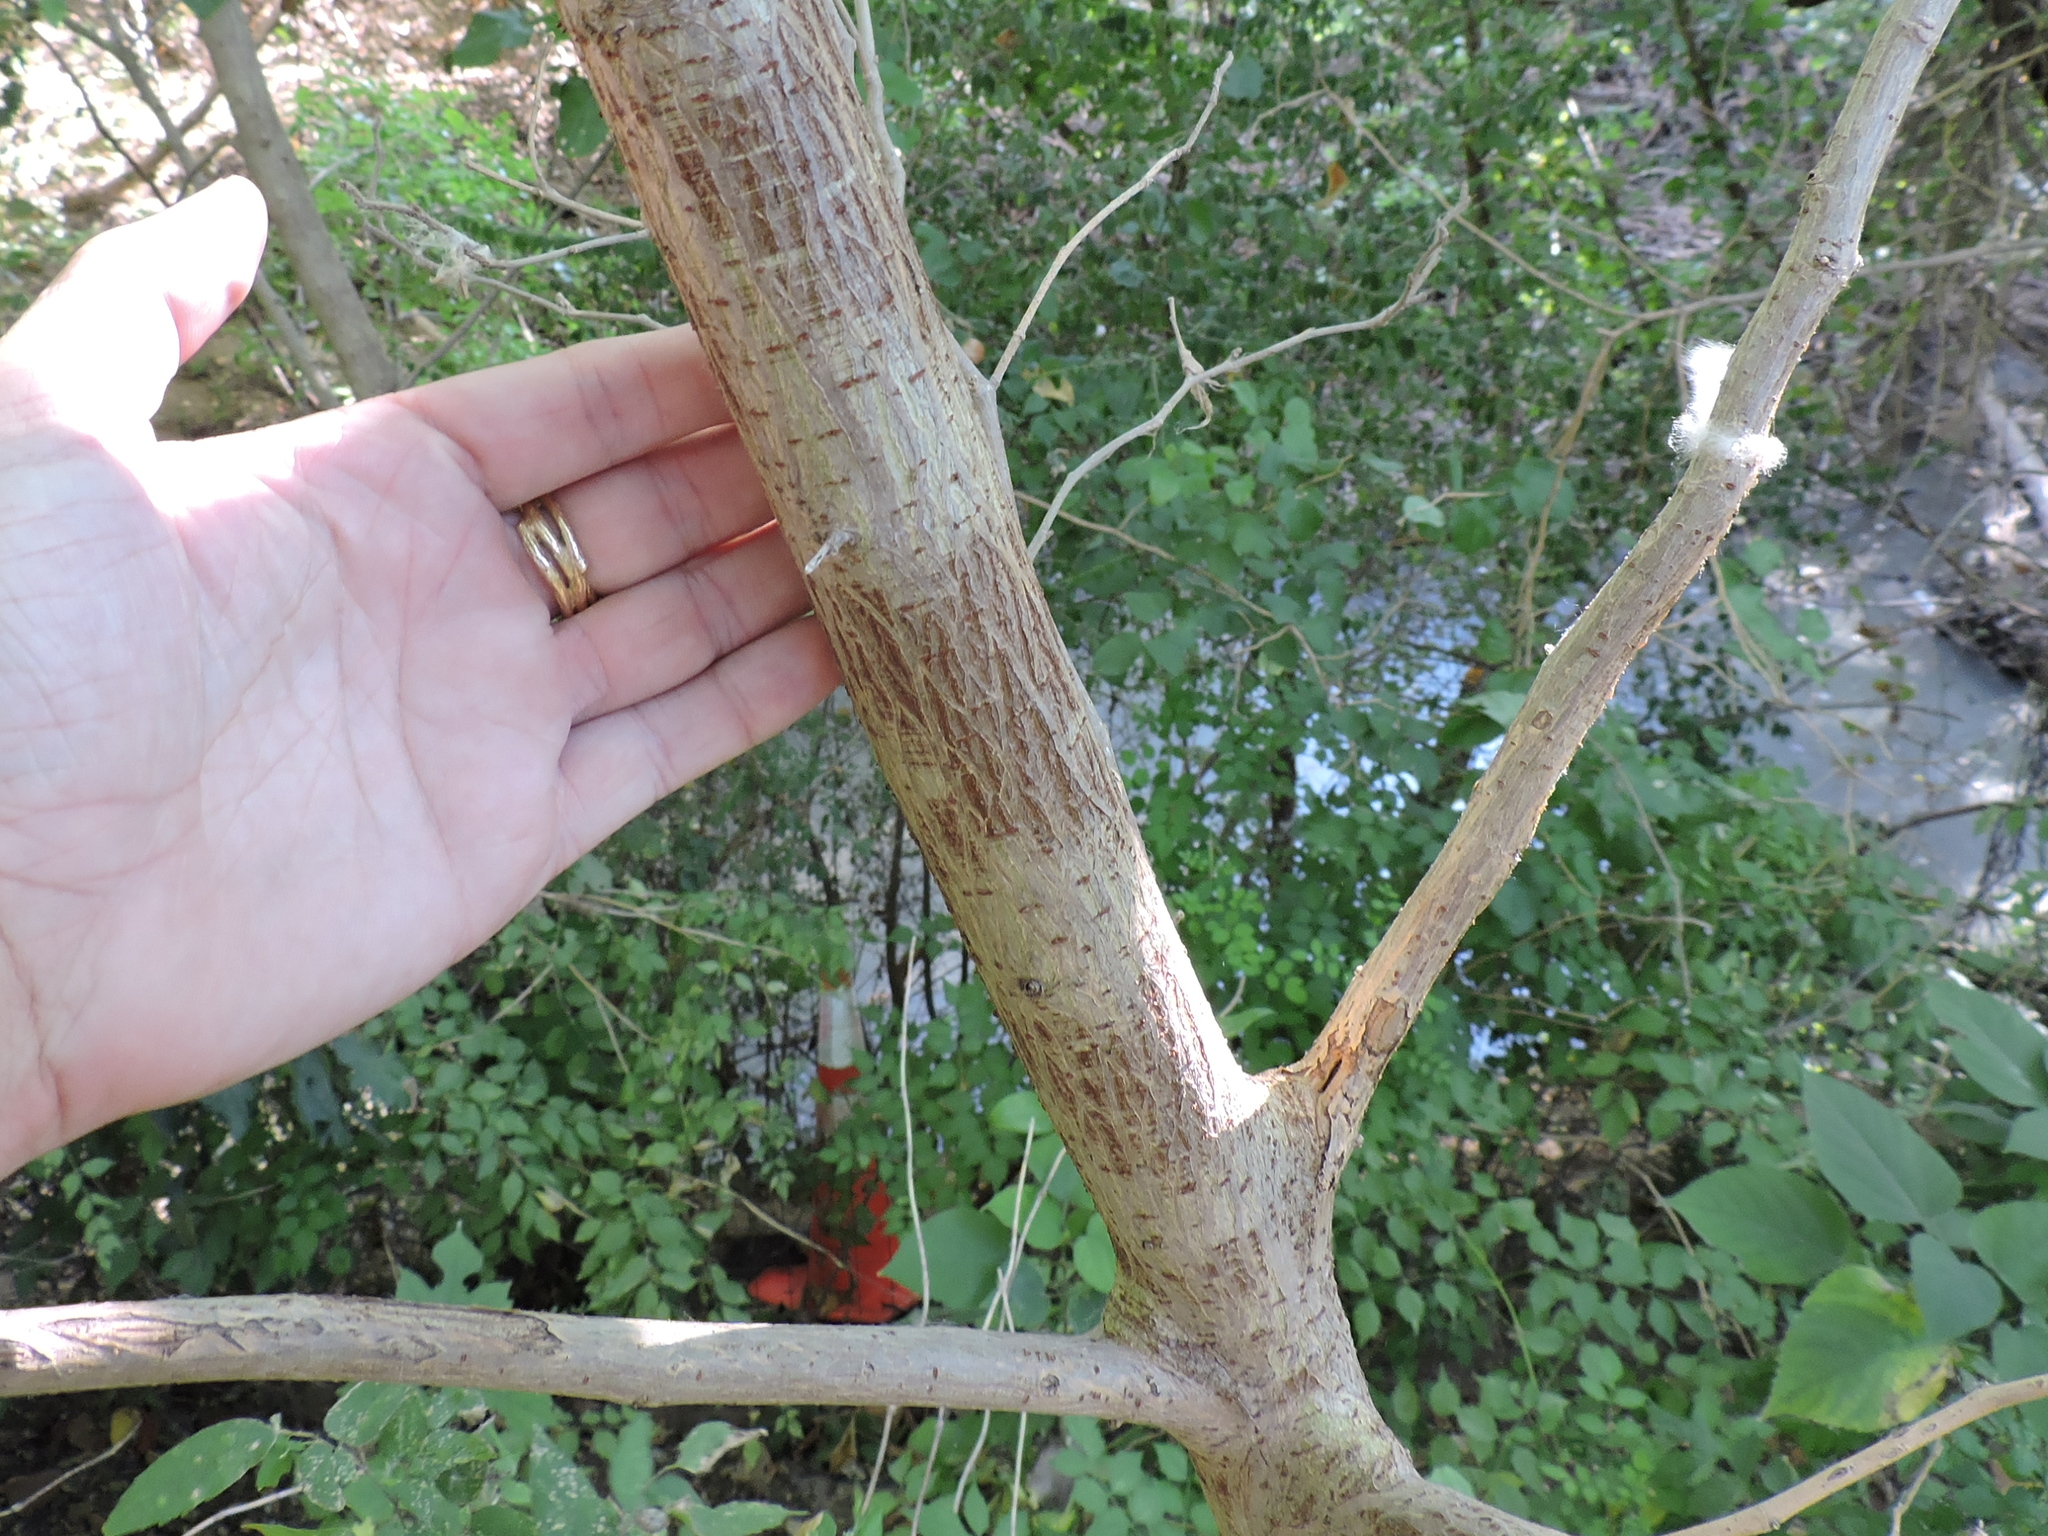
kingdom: Plantae
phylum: Tracheophyta
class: Magnoliopsida
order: Rosales
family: Moraceae
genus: Broussonetia
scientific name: Broussonetia papyrifera
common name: Paper mulberry
